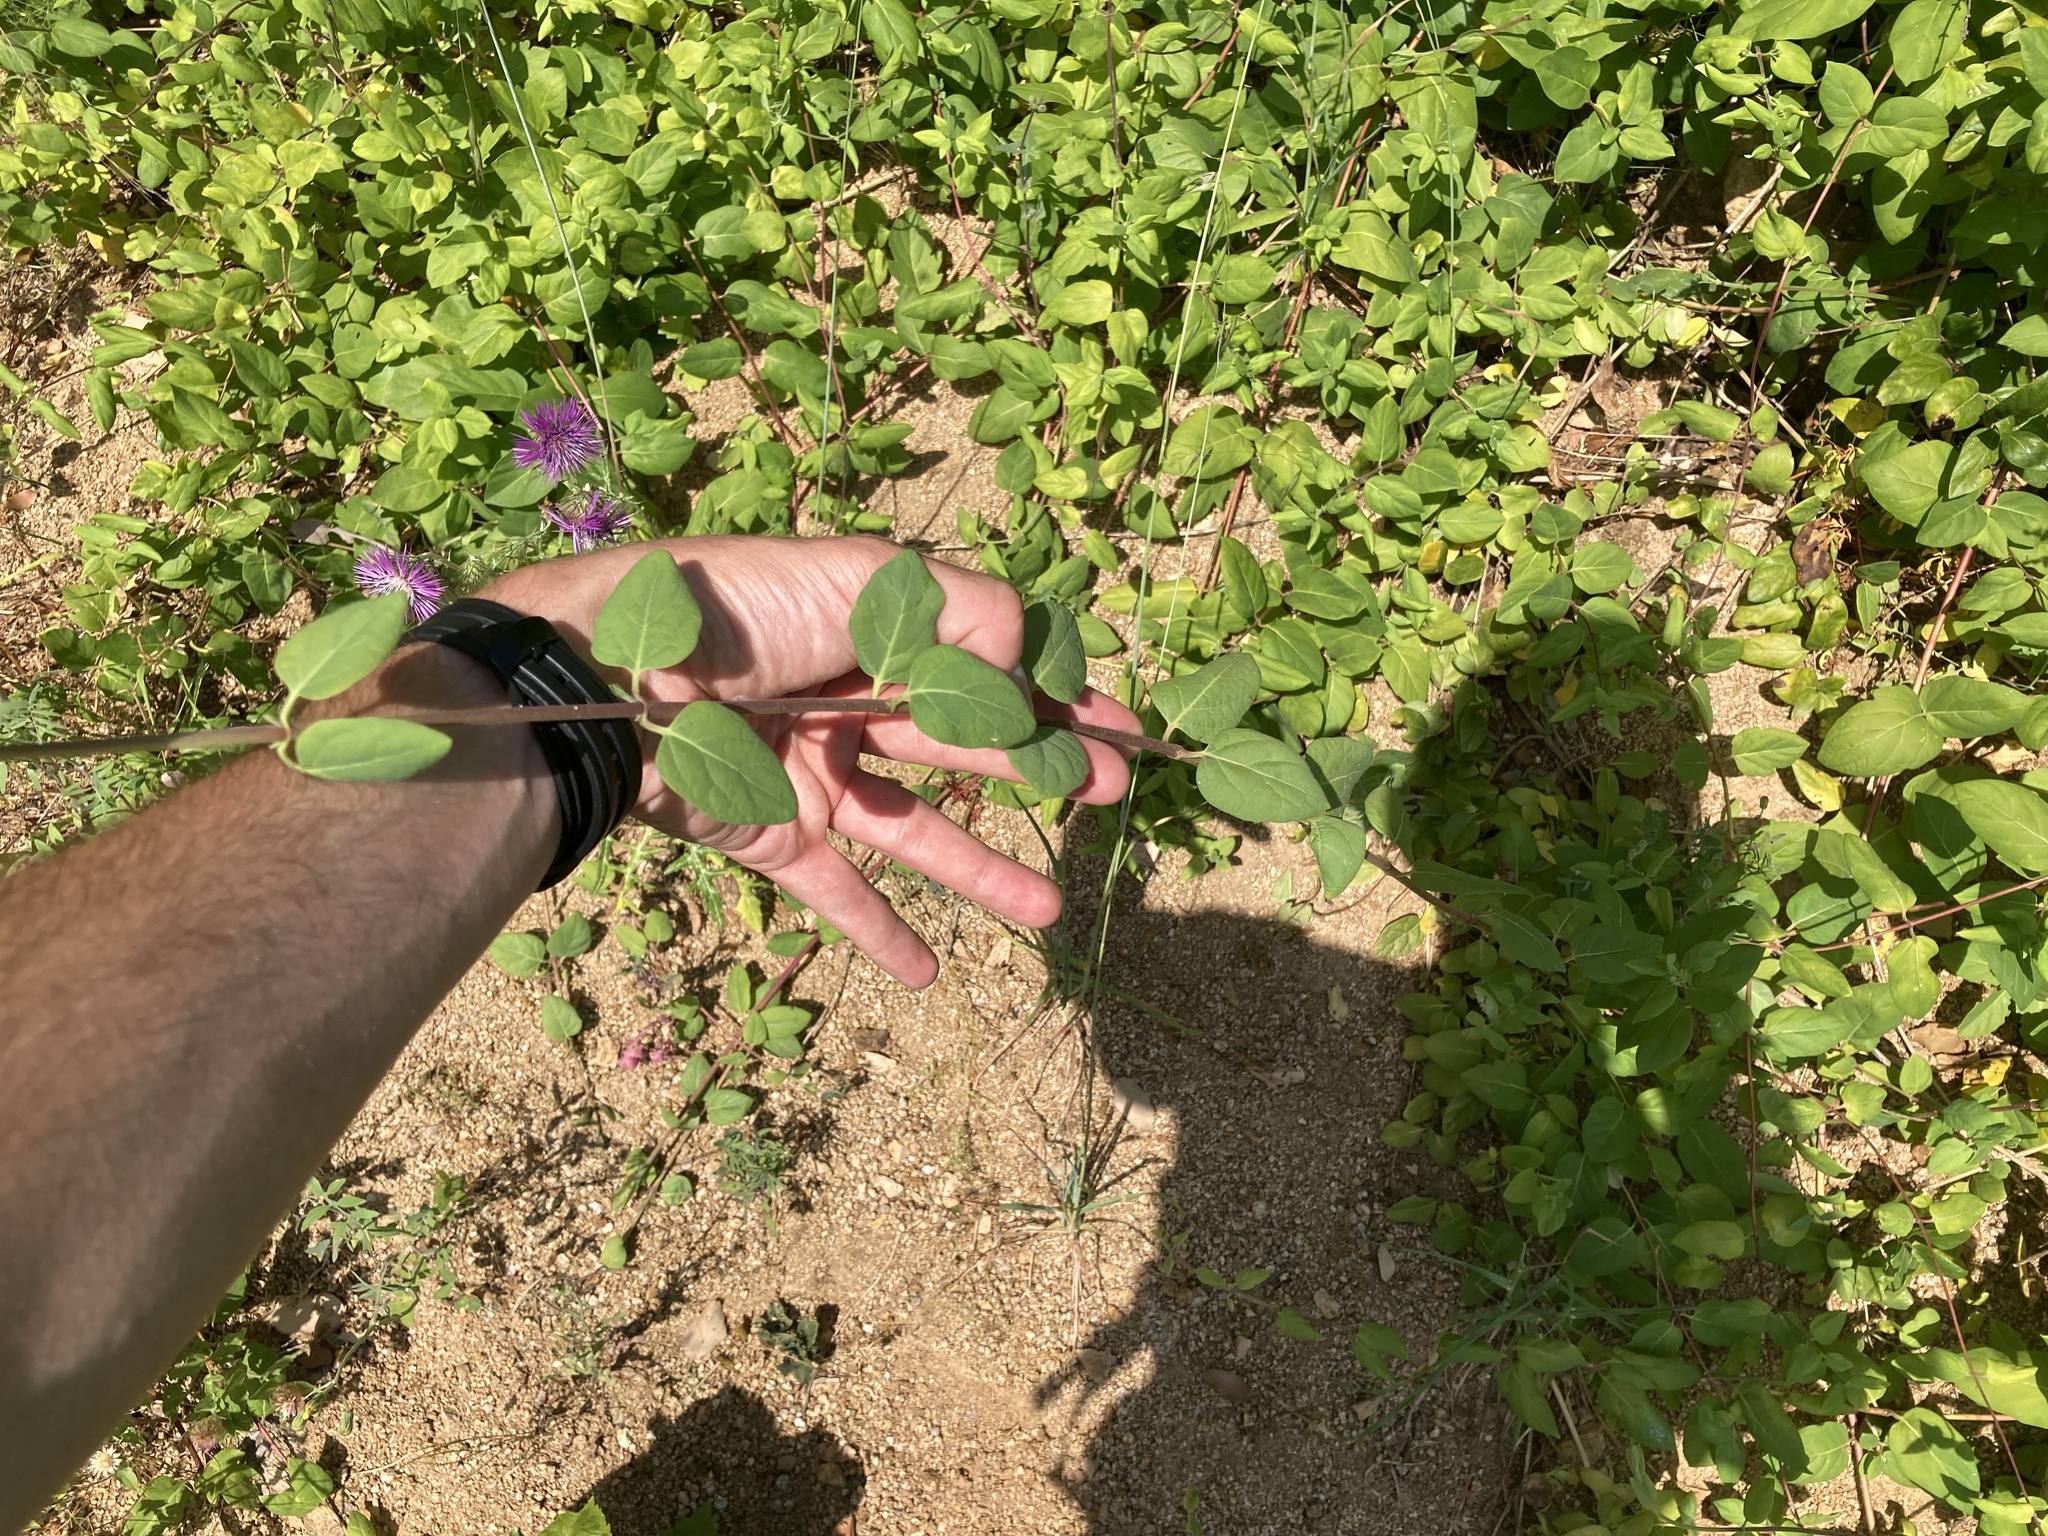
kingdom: Plantae
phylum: Tracheophyta
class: Magnoliopsida
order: Dipsacales
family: Caprifoliaceae
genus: Lonicera
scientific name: Lonicera japonica
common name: Japanese honeysuckle
